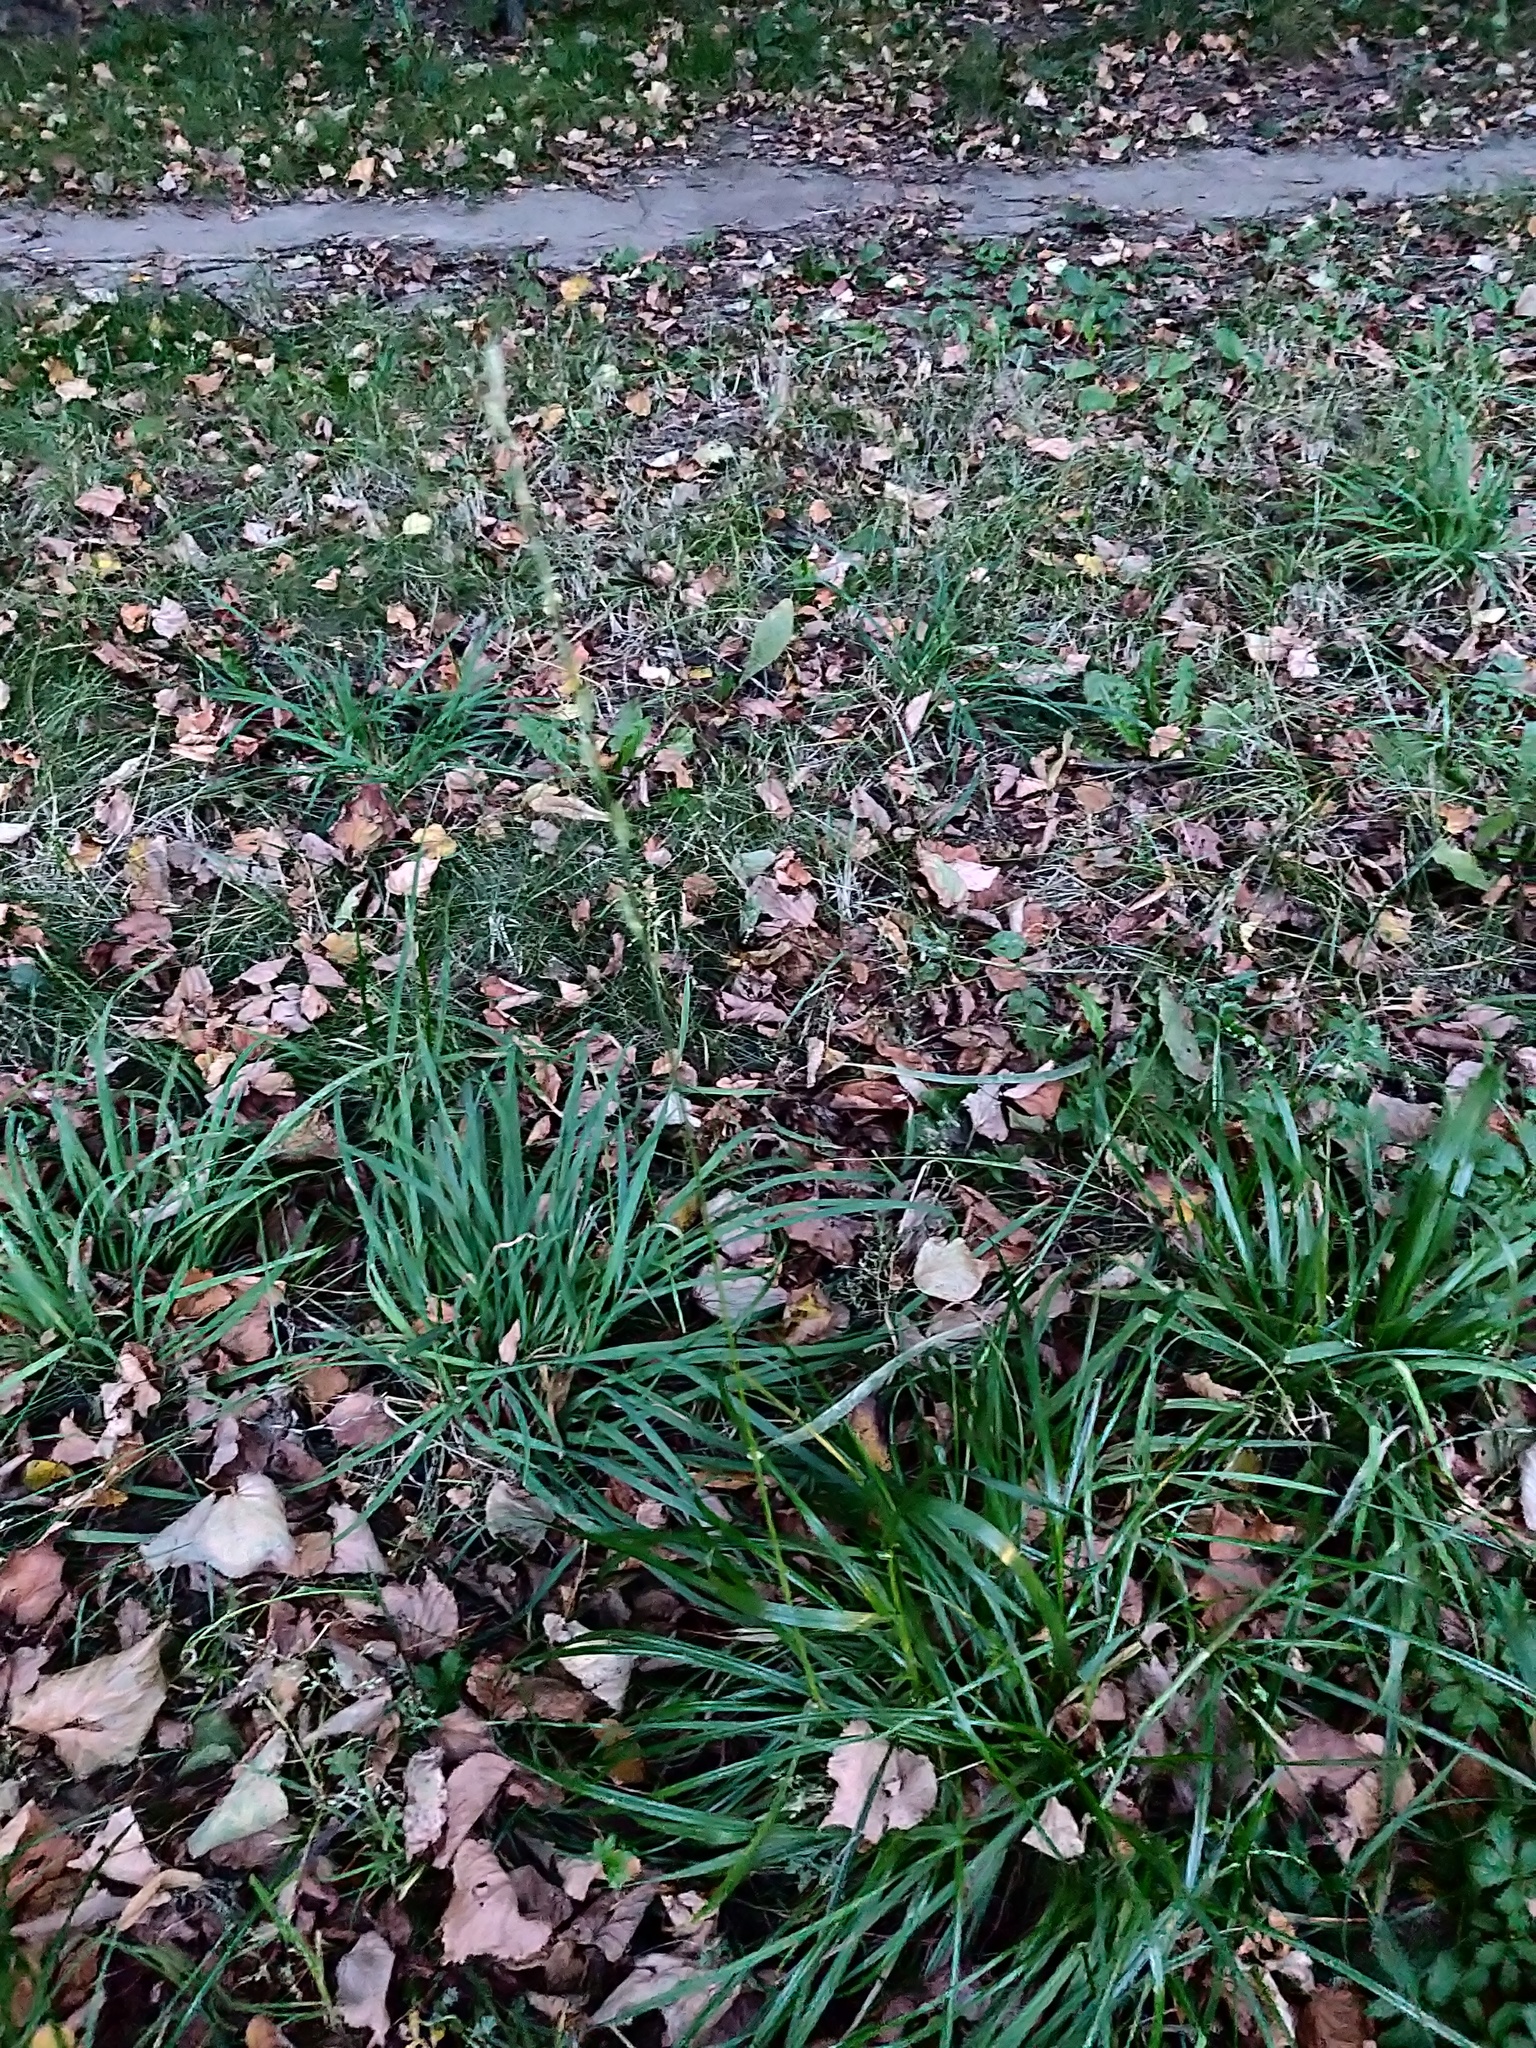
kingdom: Plantae
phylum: Tracheophyta
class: Liliopsida
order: Poales
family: Poaceae
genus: Lolium
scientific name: Lolium perenne
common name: Perennial ryegrass
